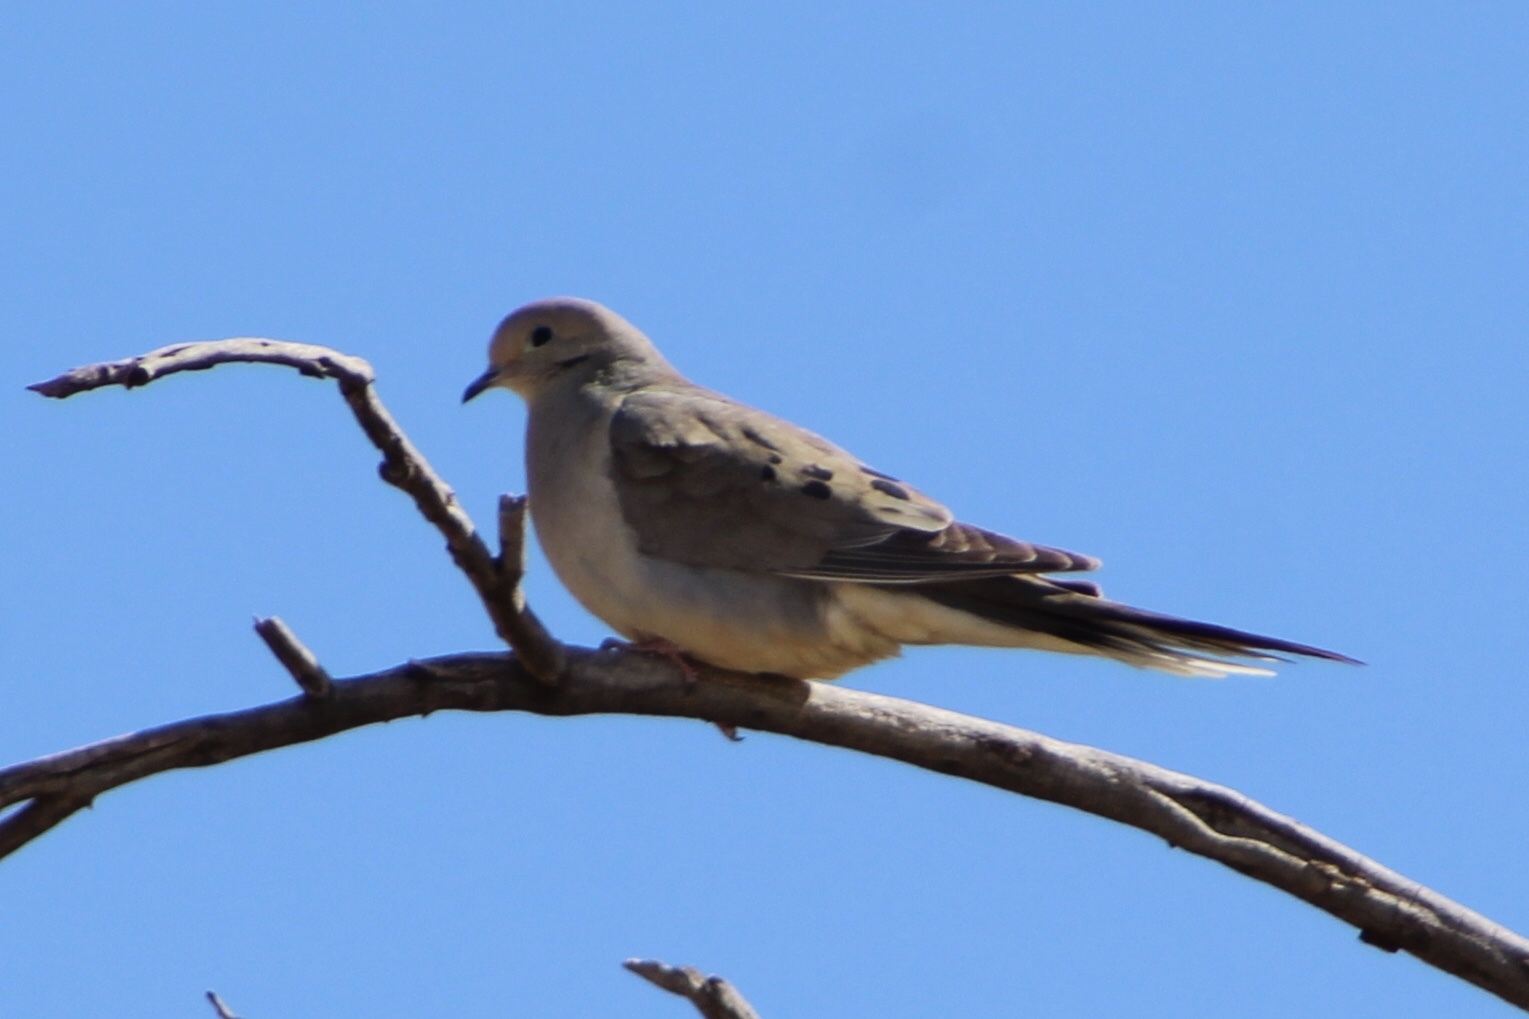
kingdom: Animalia
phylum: Chordata
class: Aves
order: Columbiformes
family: Columbidae
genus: Zenaida
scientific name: Zenaida macroura
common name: Mourning dove
